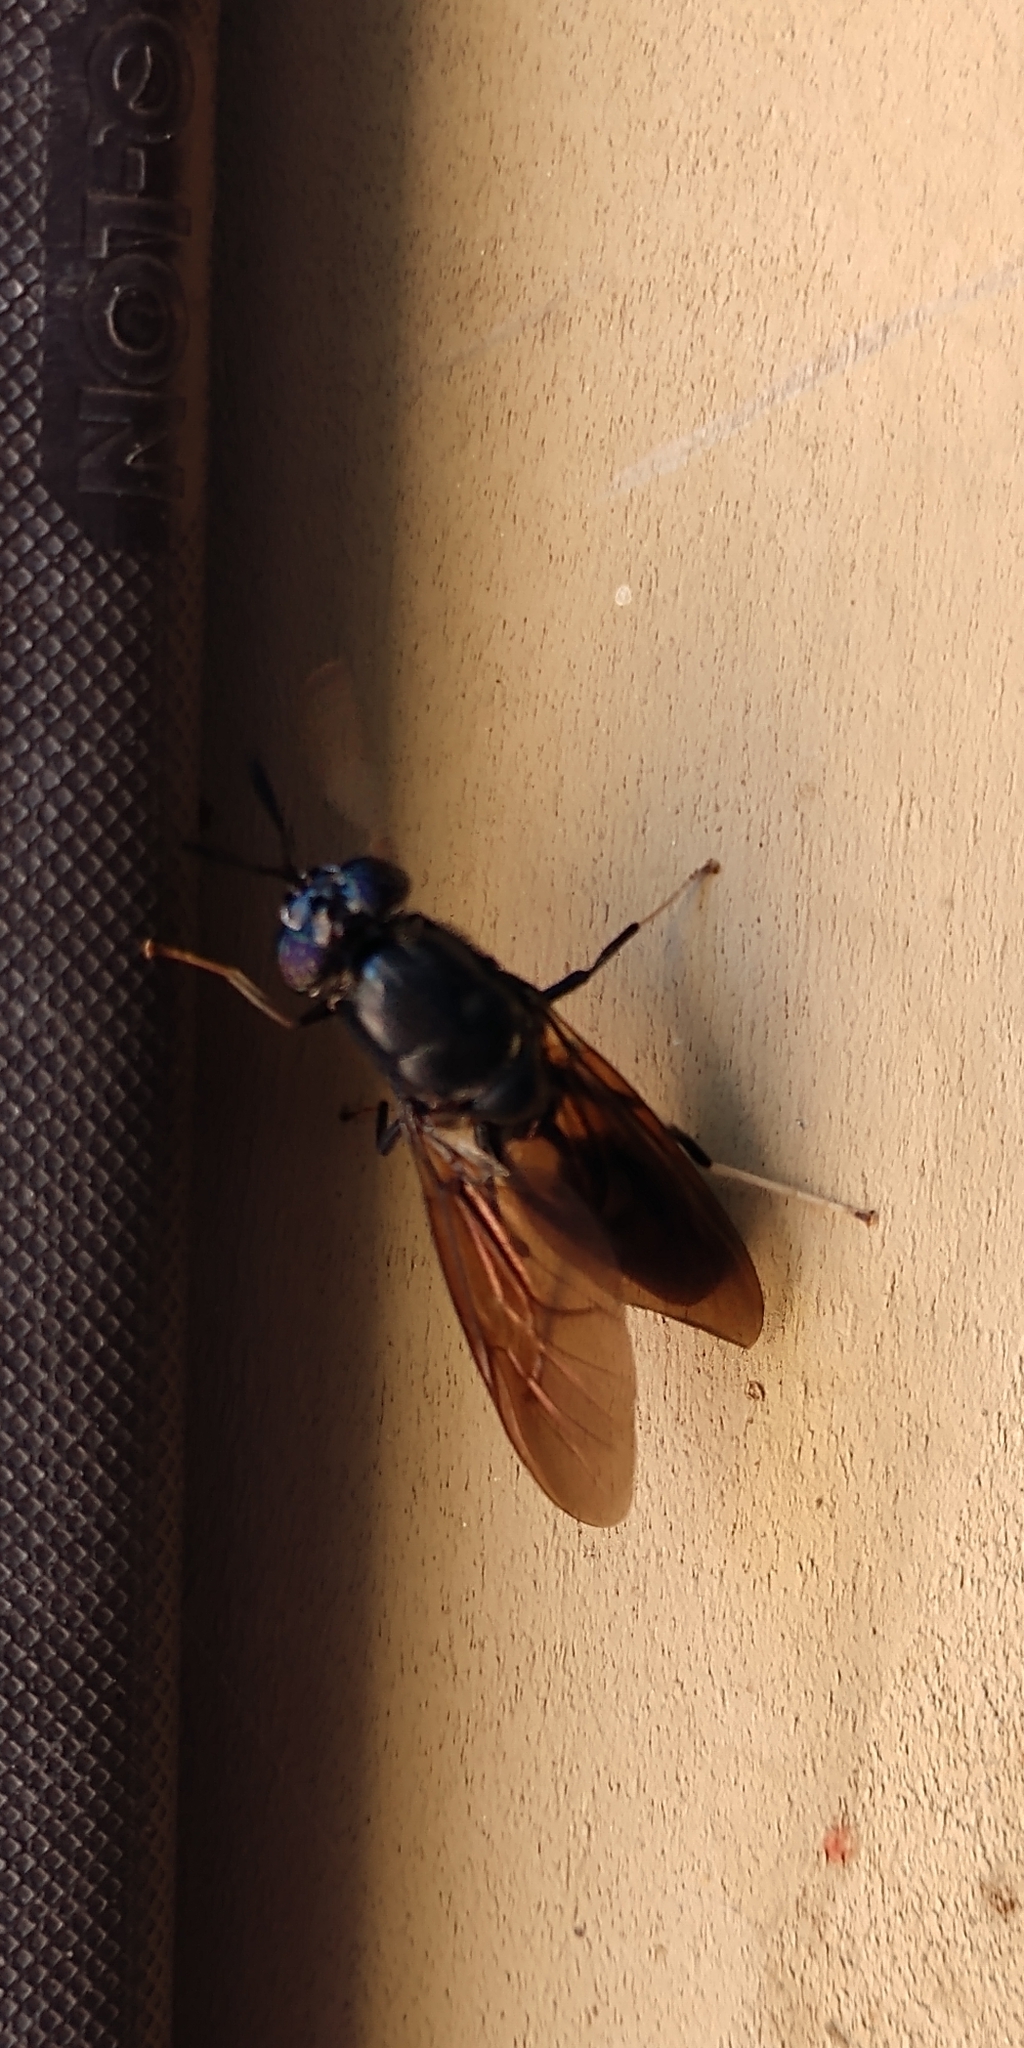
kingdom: Animalia
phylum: Arthropoda
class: Insecta
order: Diptera
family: Stratiomyidae
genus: Hermetia
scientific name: Hermetia illucens
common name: Black soldier fly
